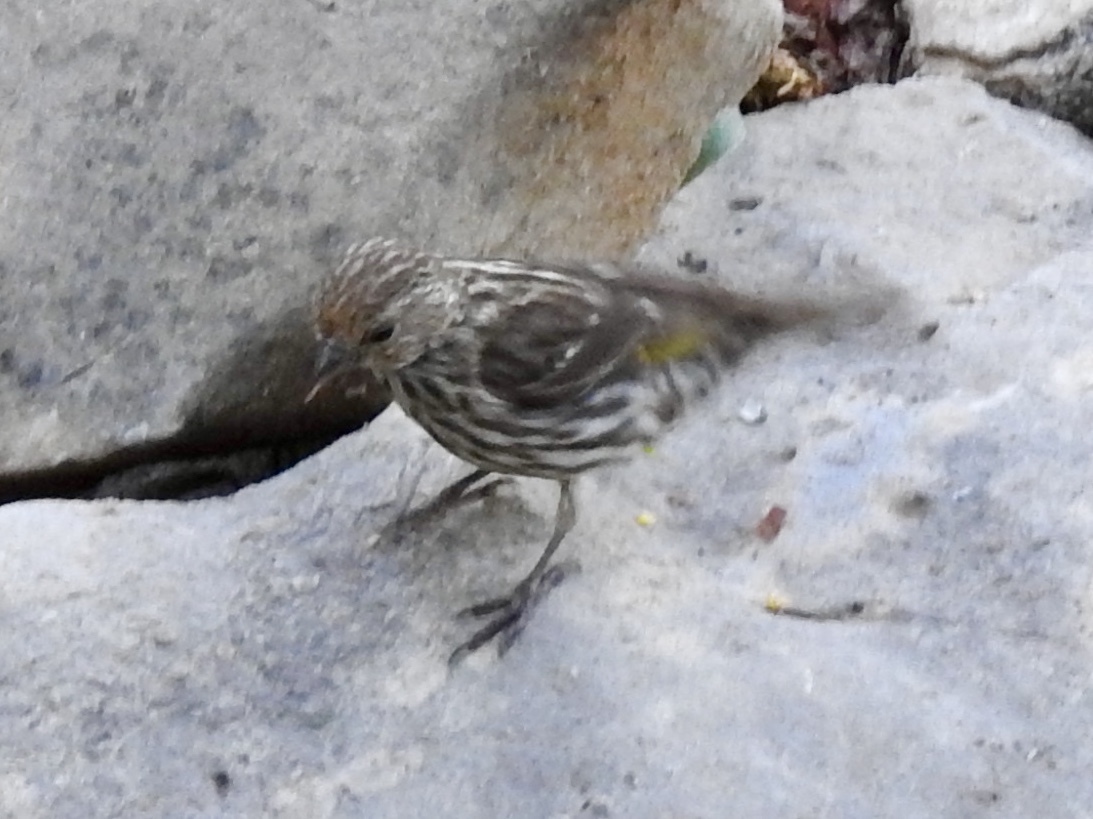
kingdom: Animalia
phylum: Chordata
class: Aves
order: Passeriformes
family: Fringillidae
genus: Spinus
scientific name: Spinus pinus
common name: Pine siskin
